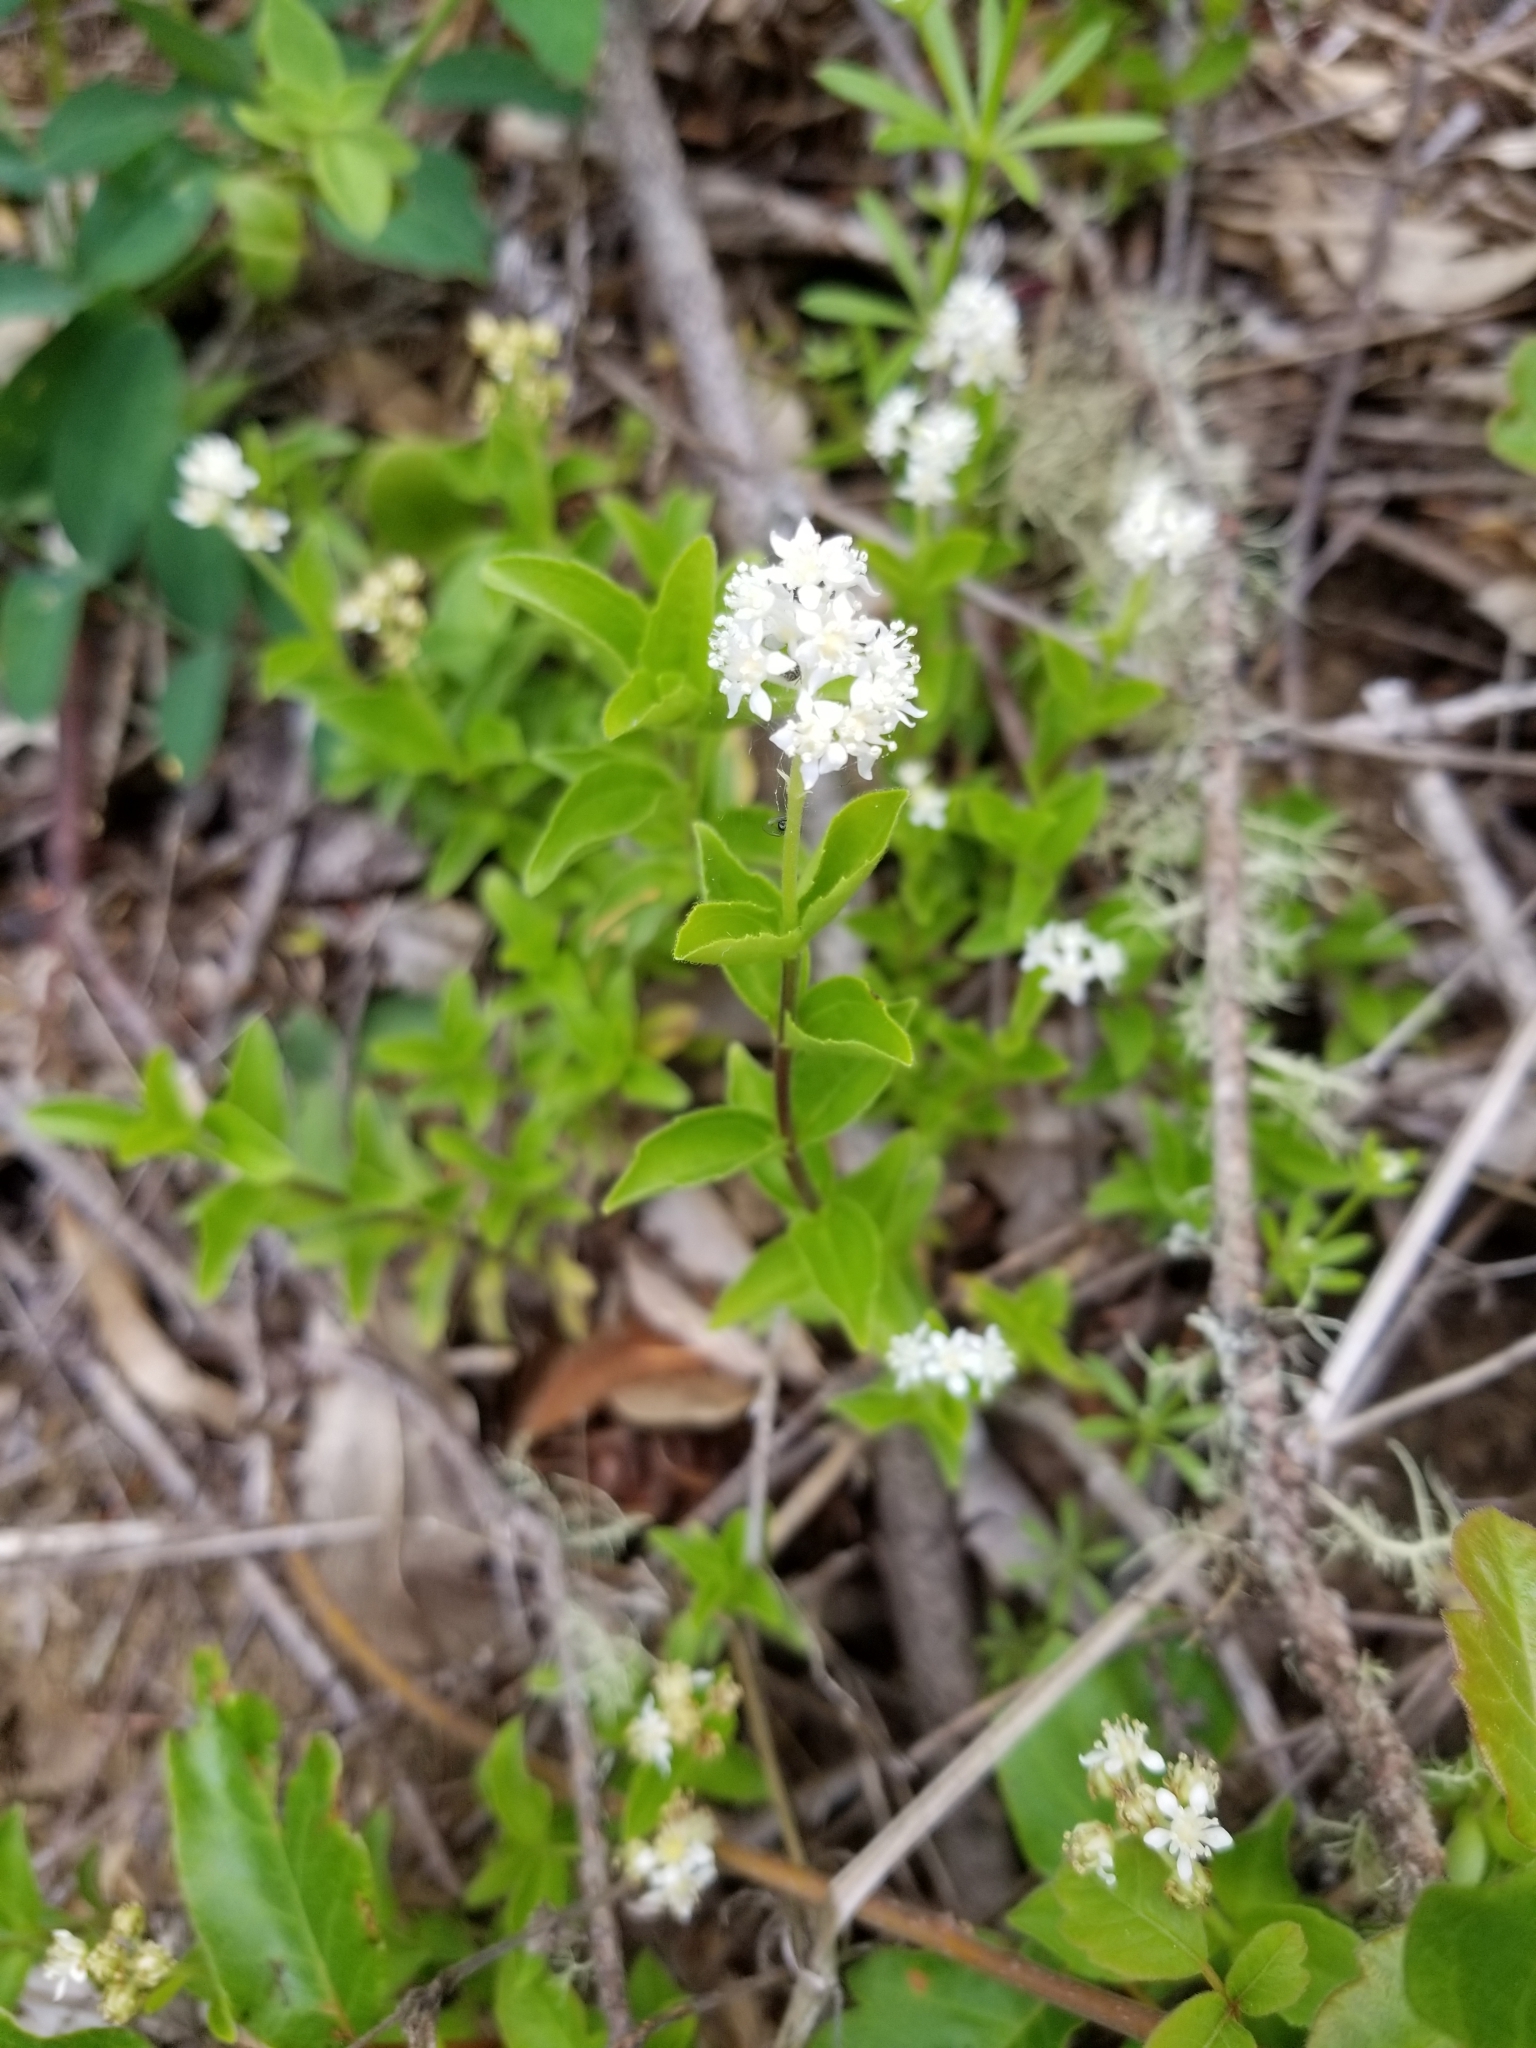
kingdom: Plantae
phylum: Tracheophyta
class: Magnoliopsida
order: Cornales
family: Hydrangeaceae
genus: Whipplea
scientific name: Whipplea modesta
